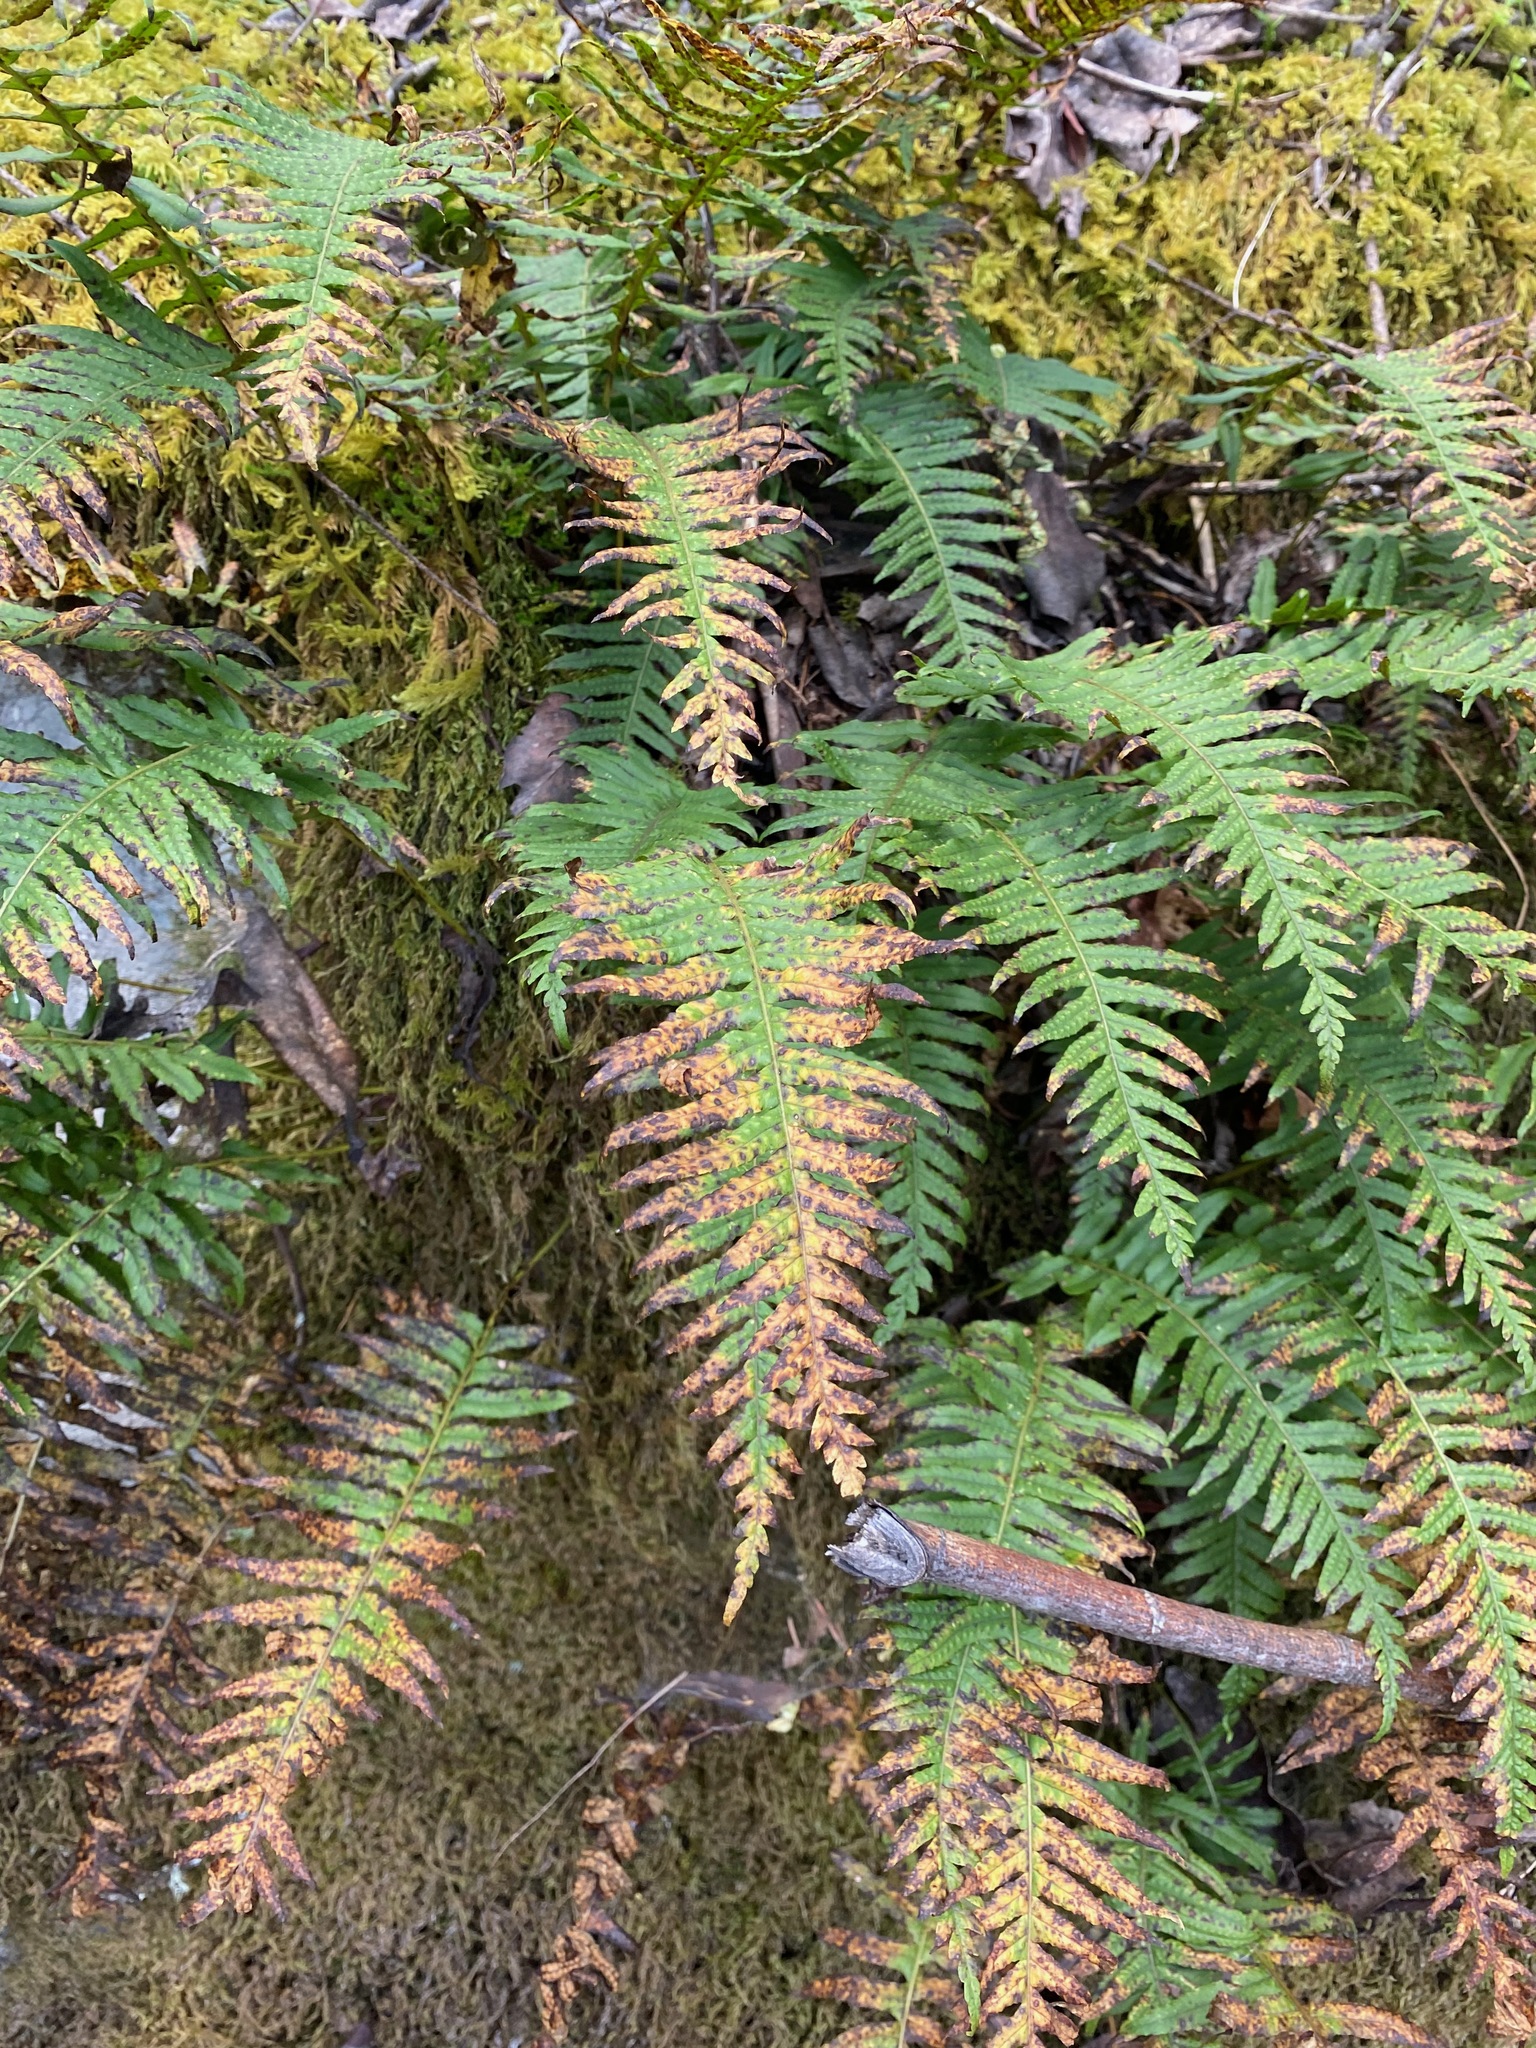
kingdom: Plantae
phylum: Tracheophyta
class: Polypodiopsida
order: Polypodiales
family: Polypodiaceae
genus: Polypodium
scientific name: Polypodium glycyrrhiza
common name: Licorice fern
